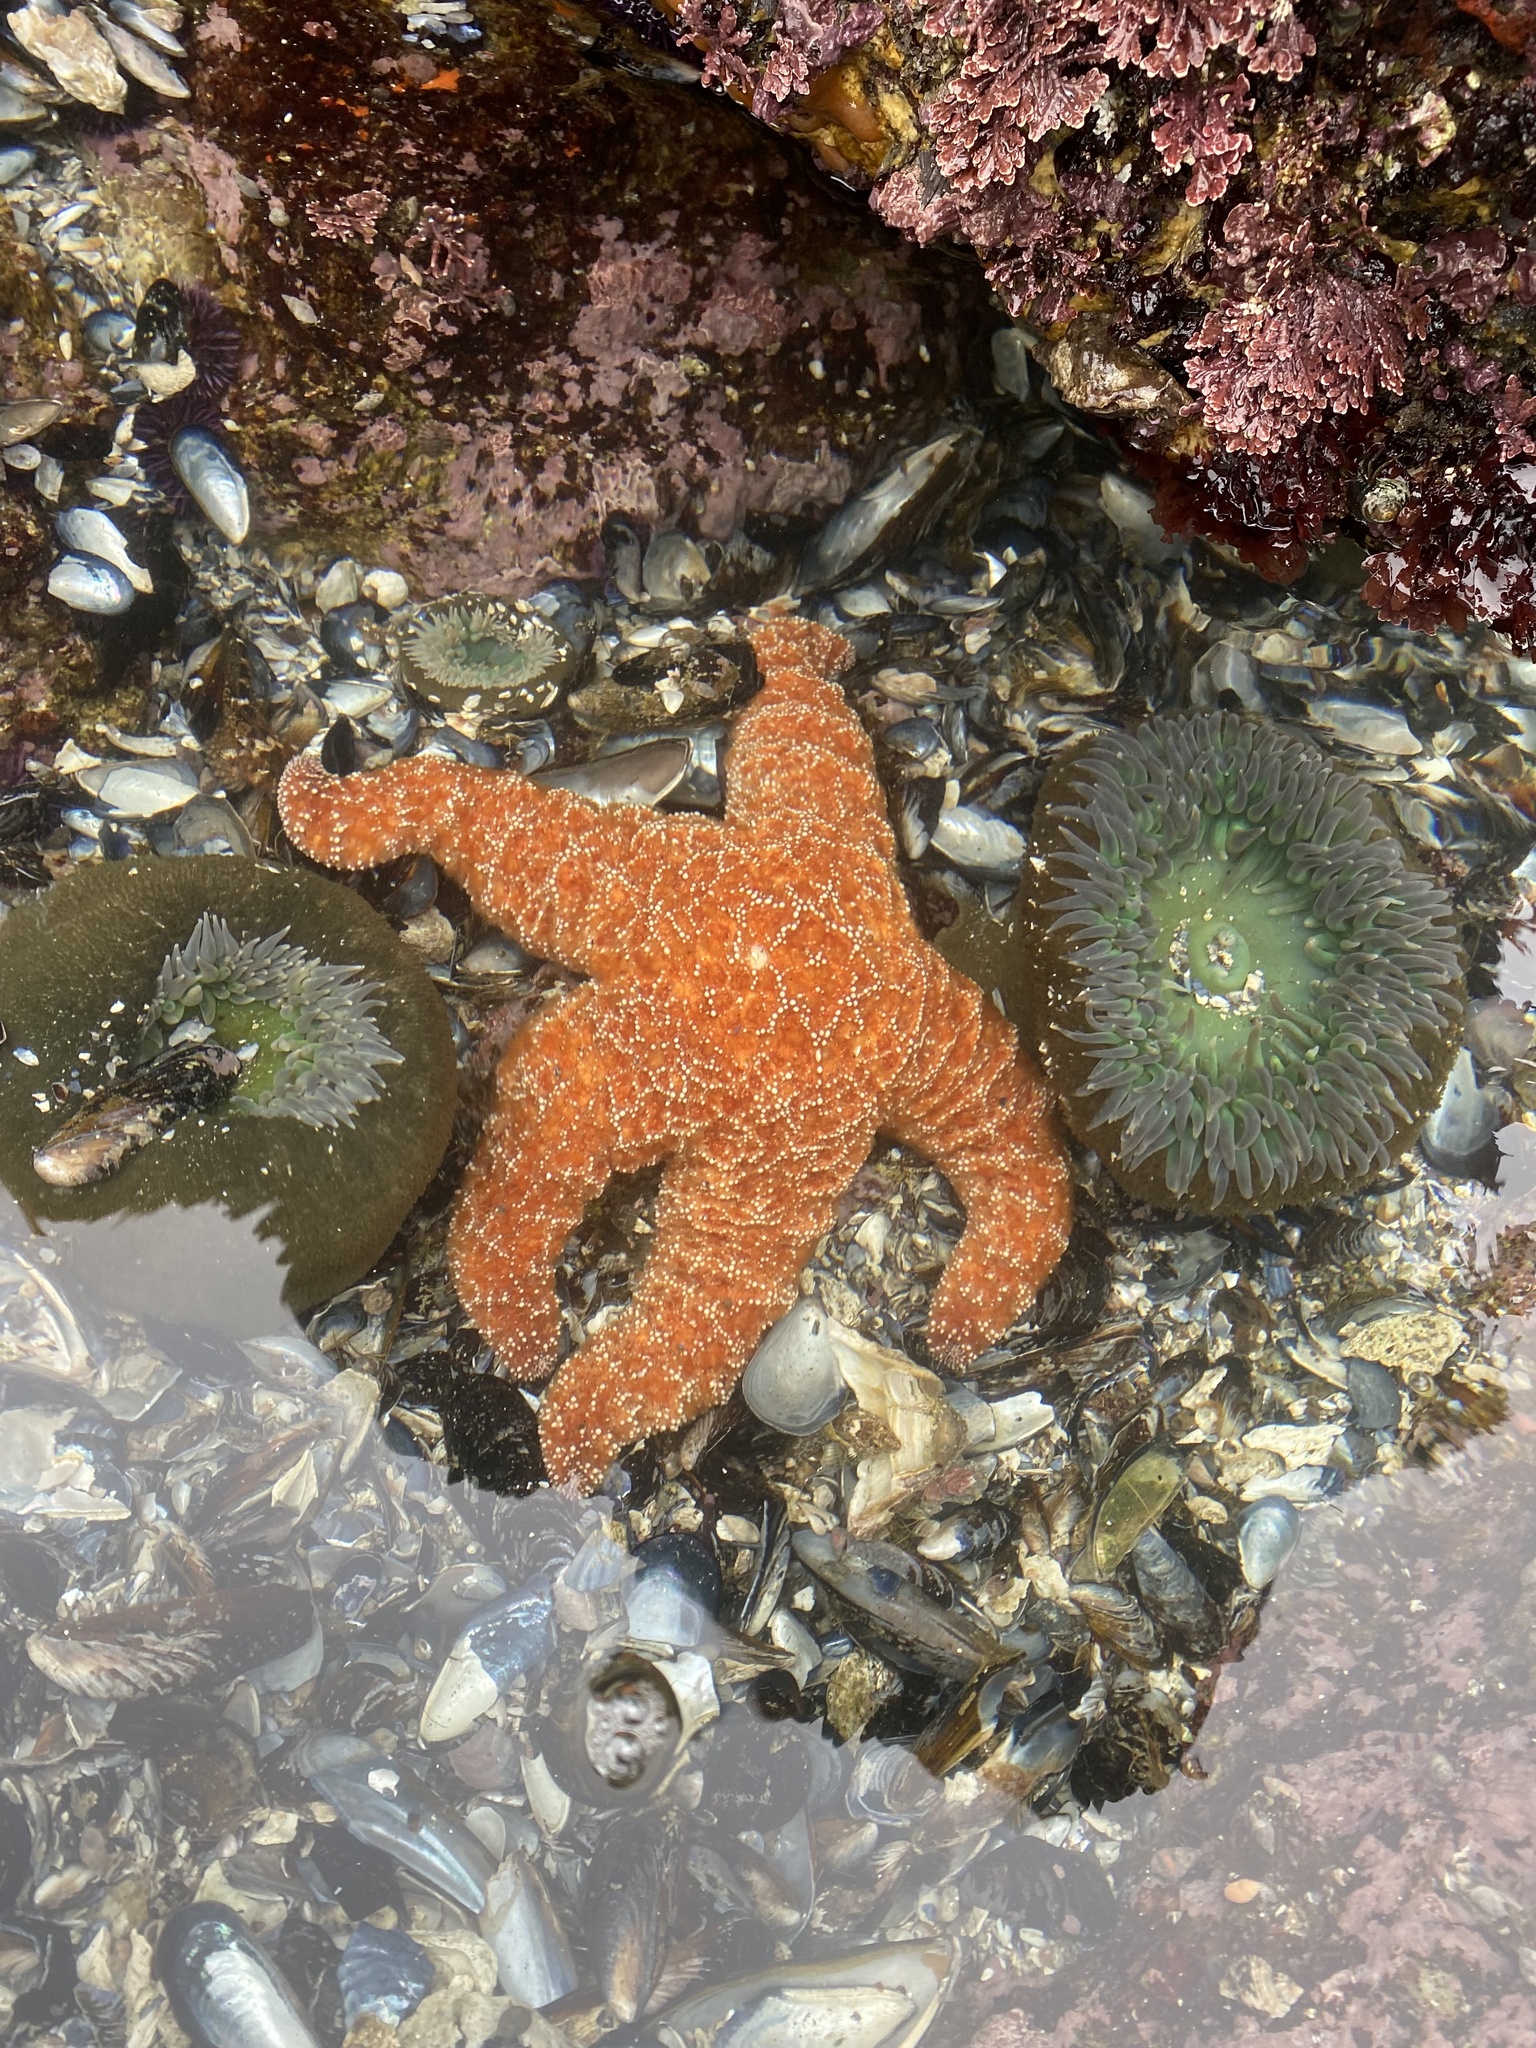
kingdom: Animalia
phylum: Echinodermata
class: Asteroidea
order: Forcipulatida
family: Asteriidae
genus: Pisaster
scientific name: Pisaster ochraceus
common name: Ochre stars
